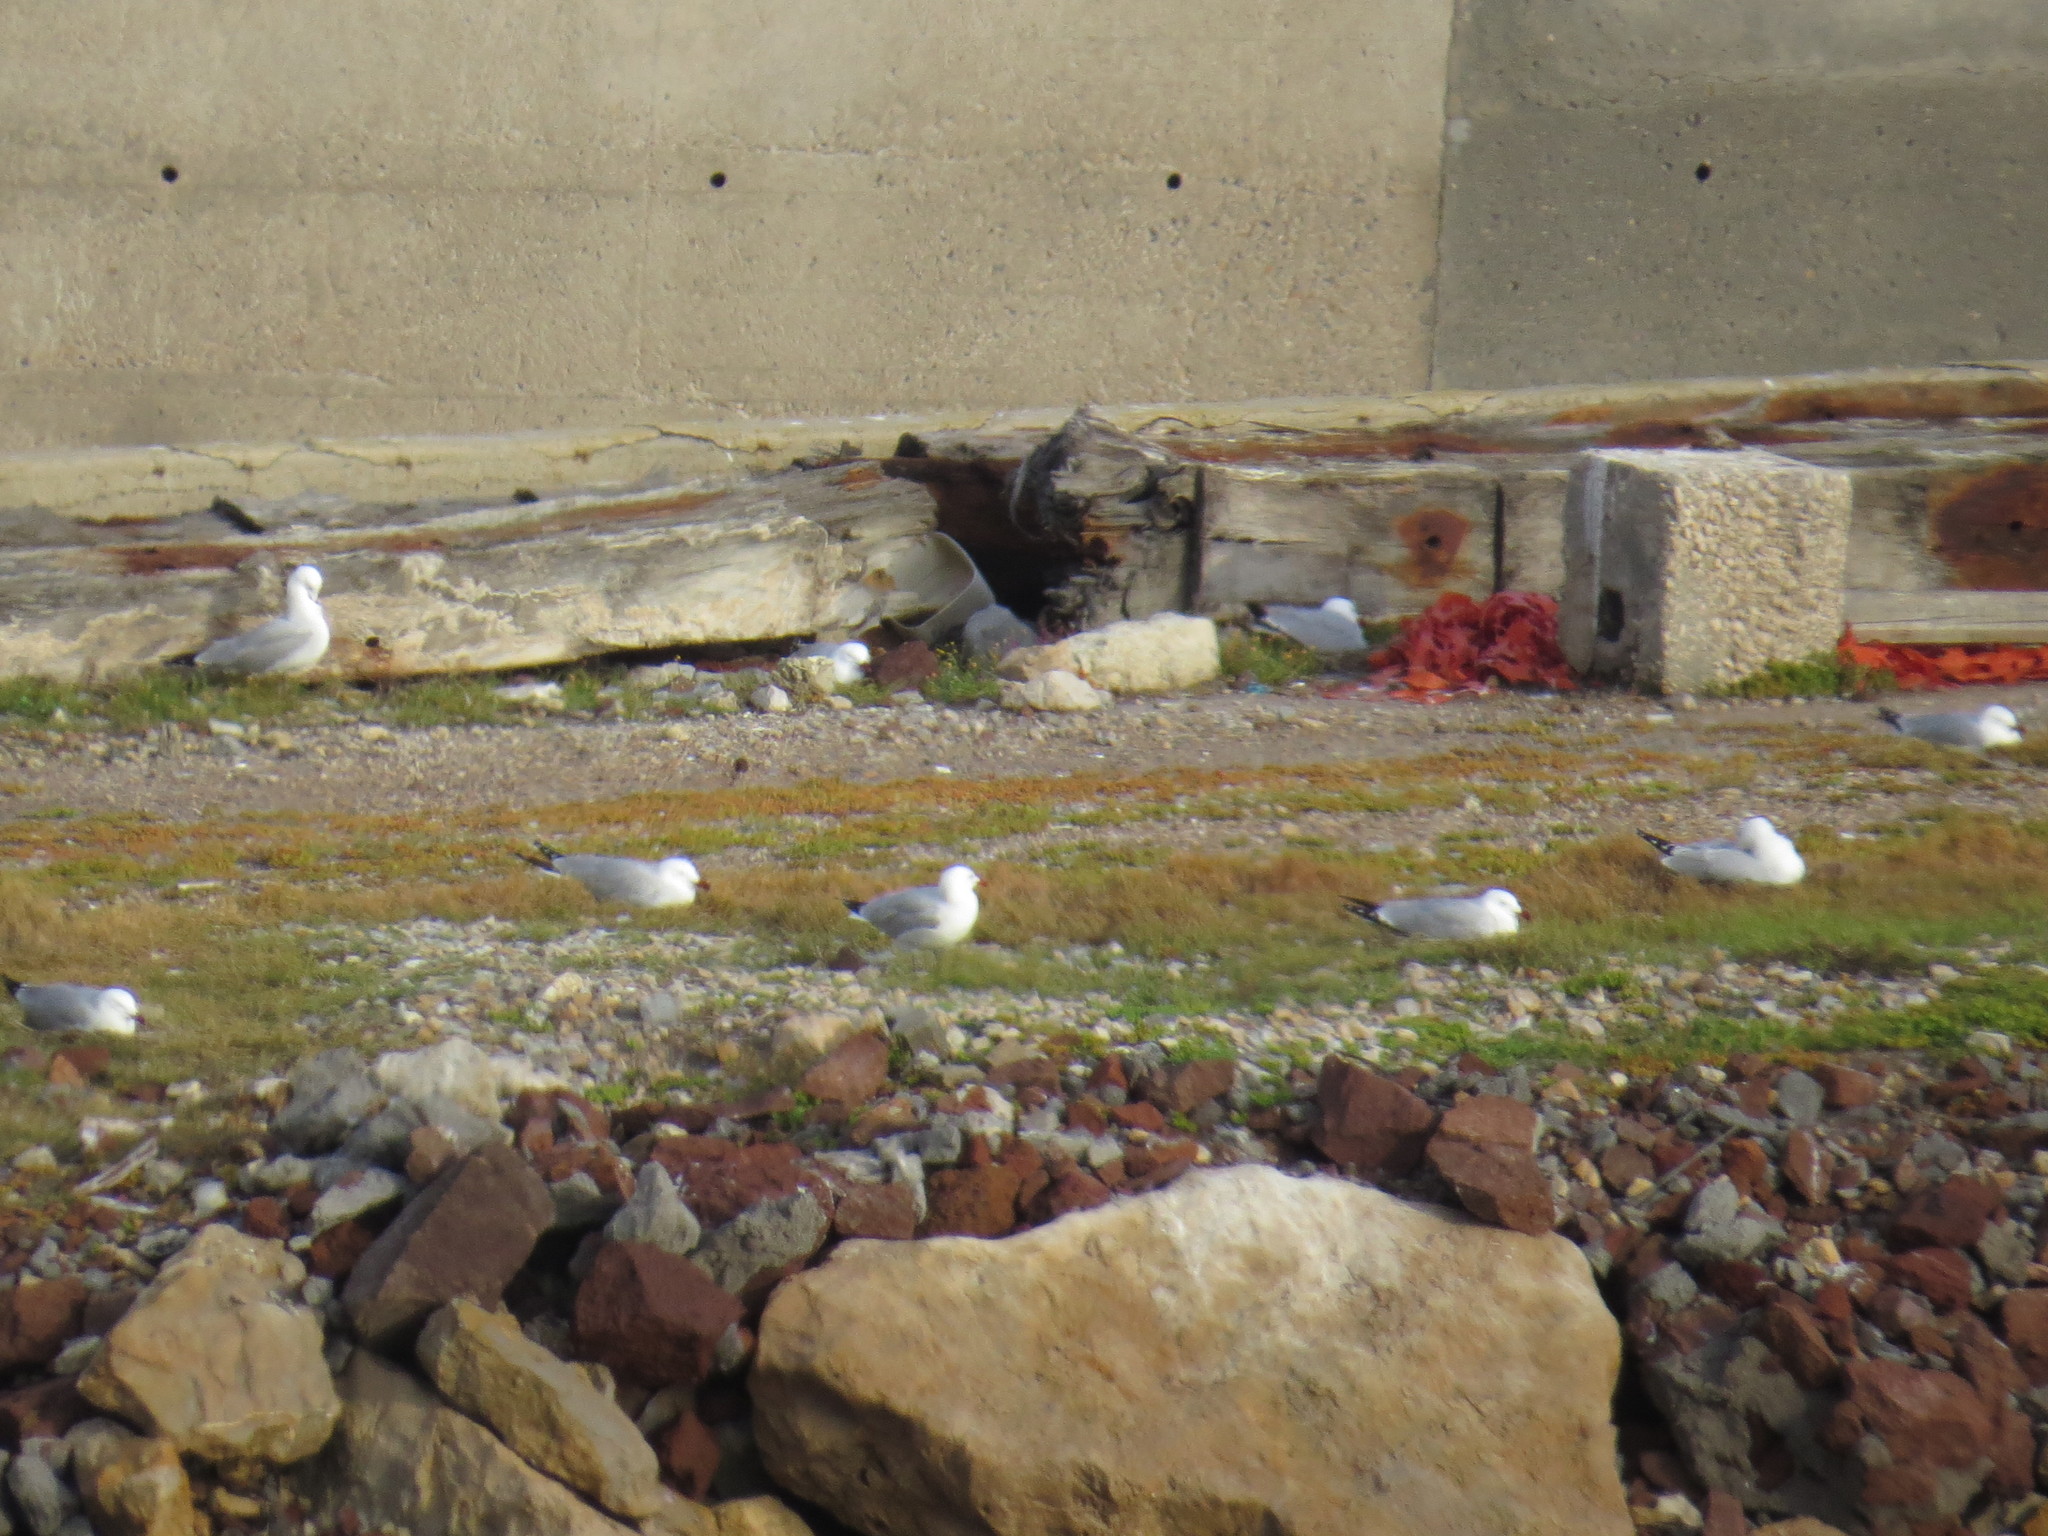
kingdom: Animalia
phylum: Chordata
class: Aves
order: Charadriiformes
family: Laridae
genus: Ichthyaetus
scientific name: Ichthyaetus audouinii
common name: Audouin's gull
